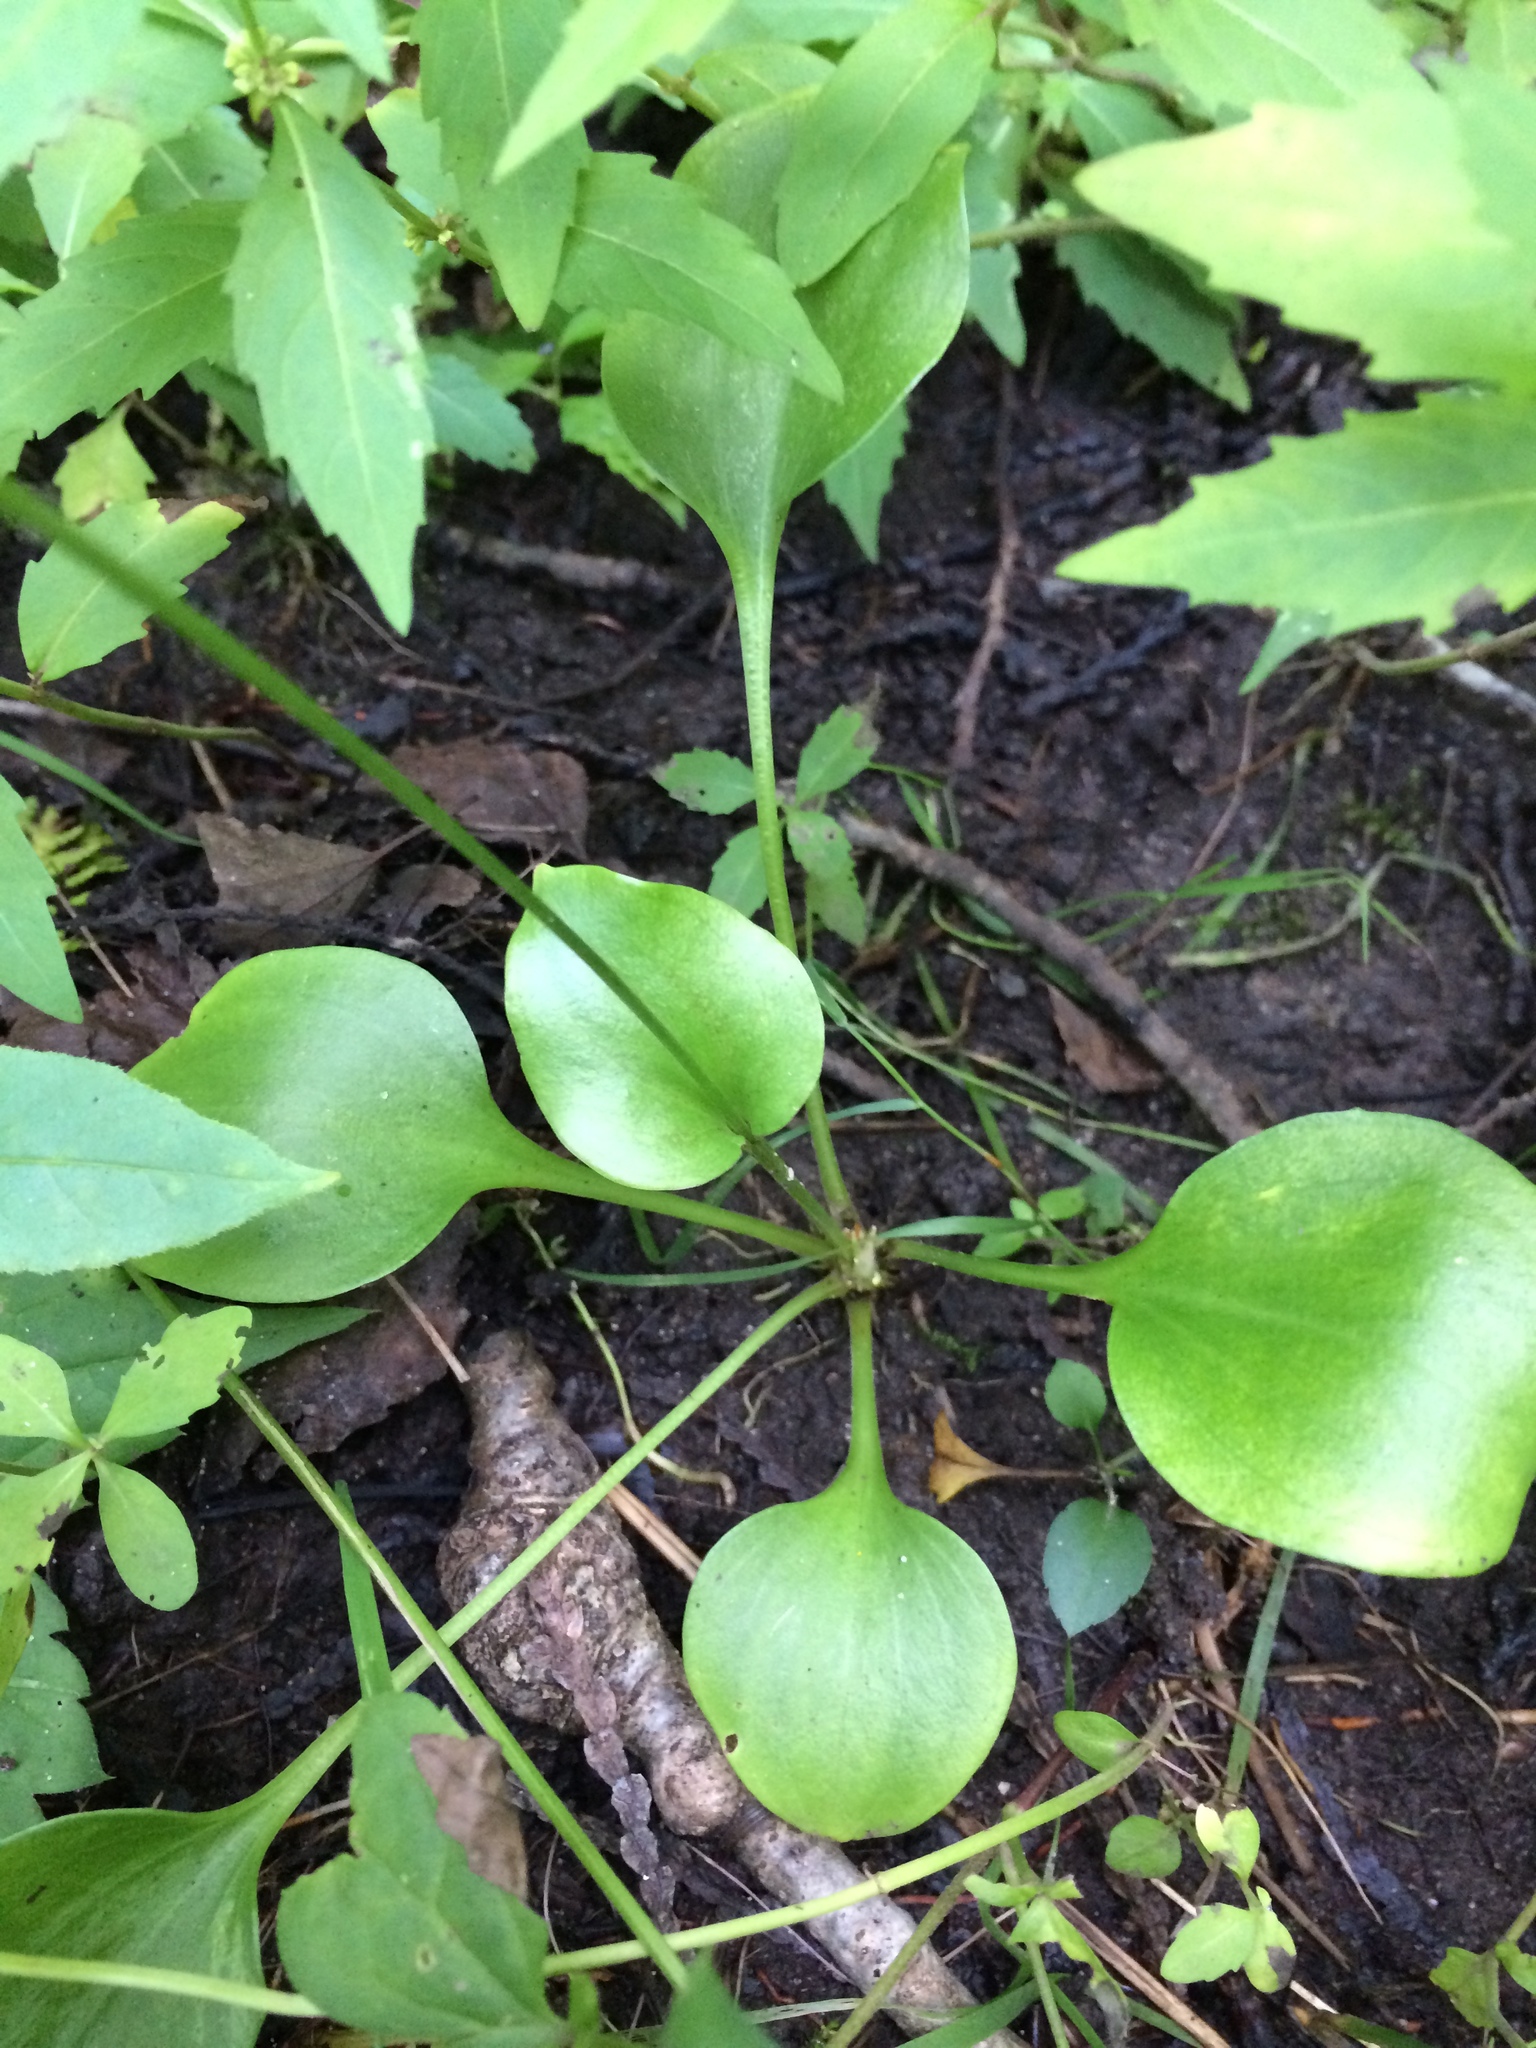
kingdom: Plantae
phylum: Tracheophyta
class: Magnoliopsida
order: Celastrales
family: Parnassiaceae
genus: Parnassia
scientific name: Parnassia glauca
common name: American grass-of-parnassus
